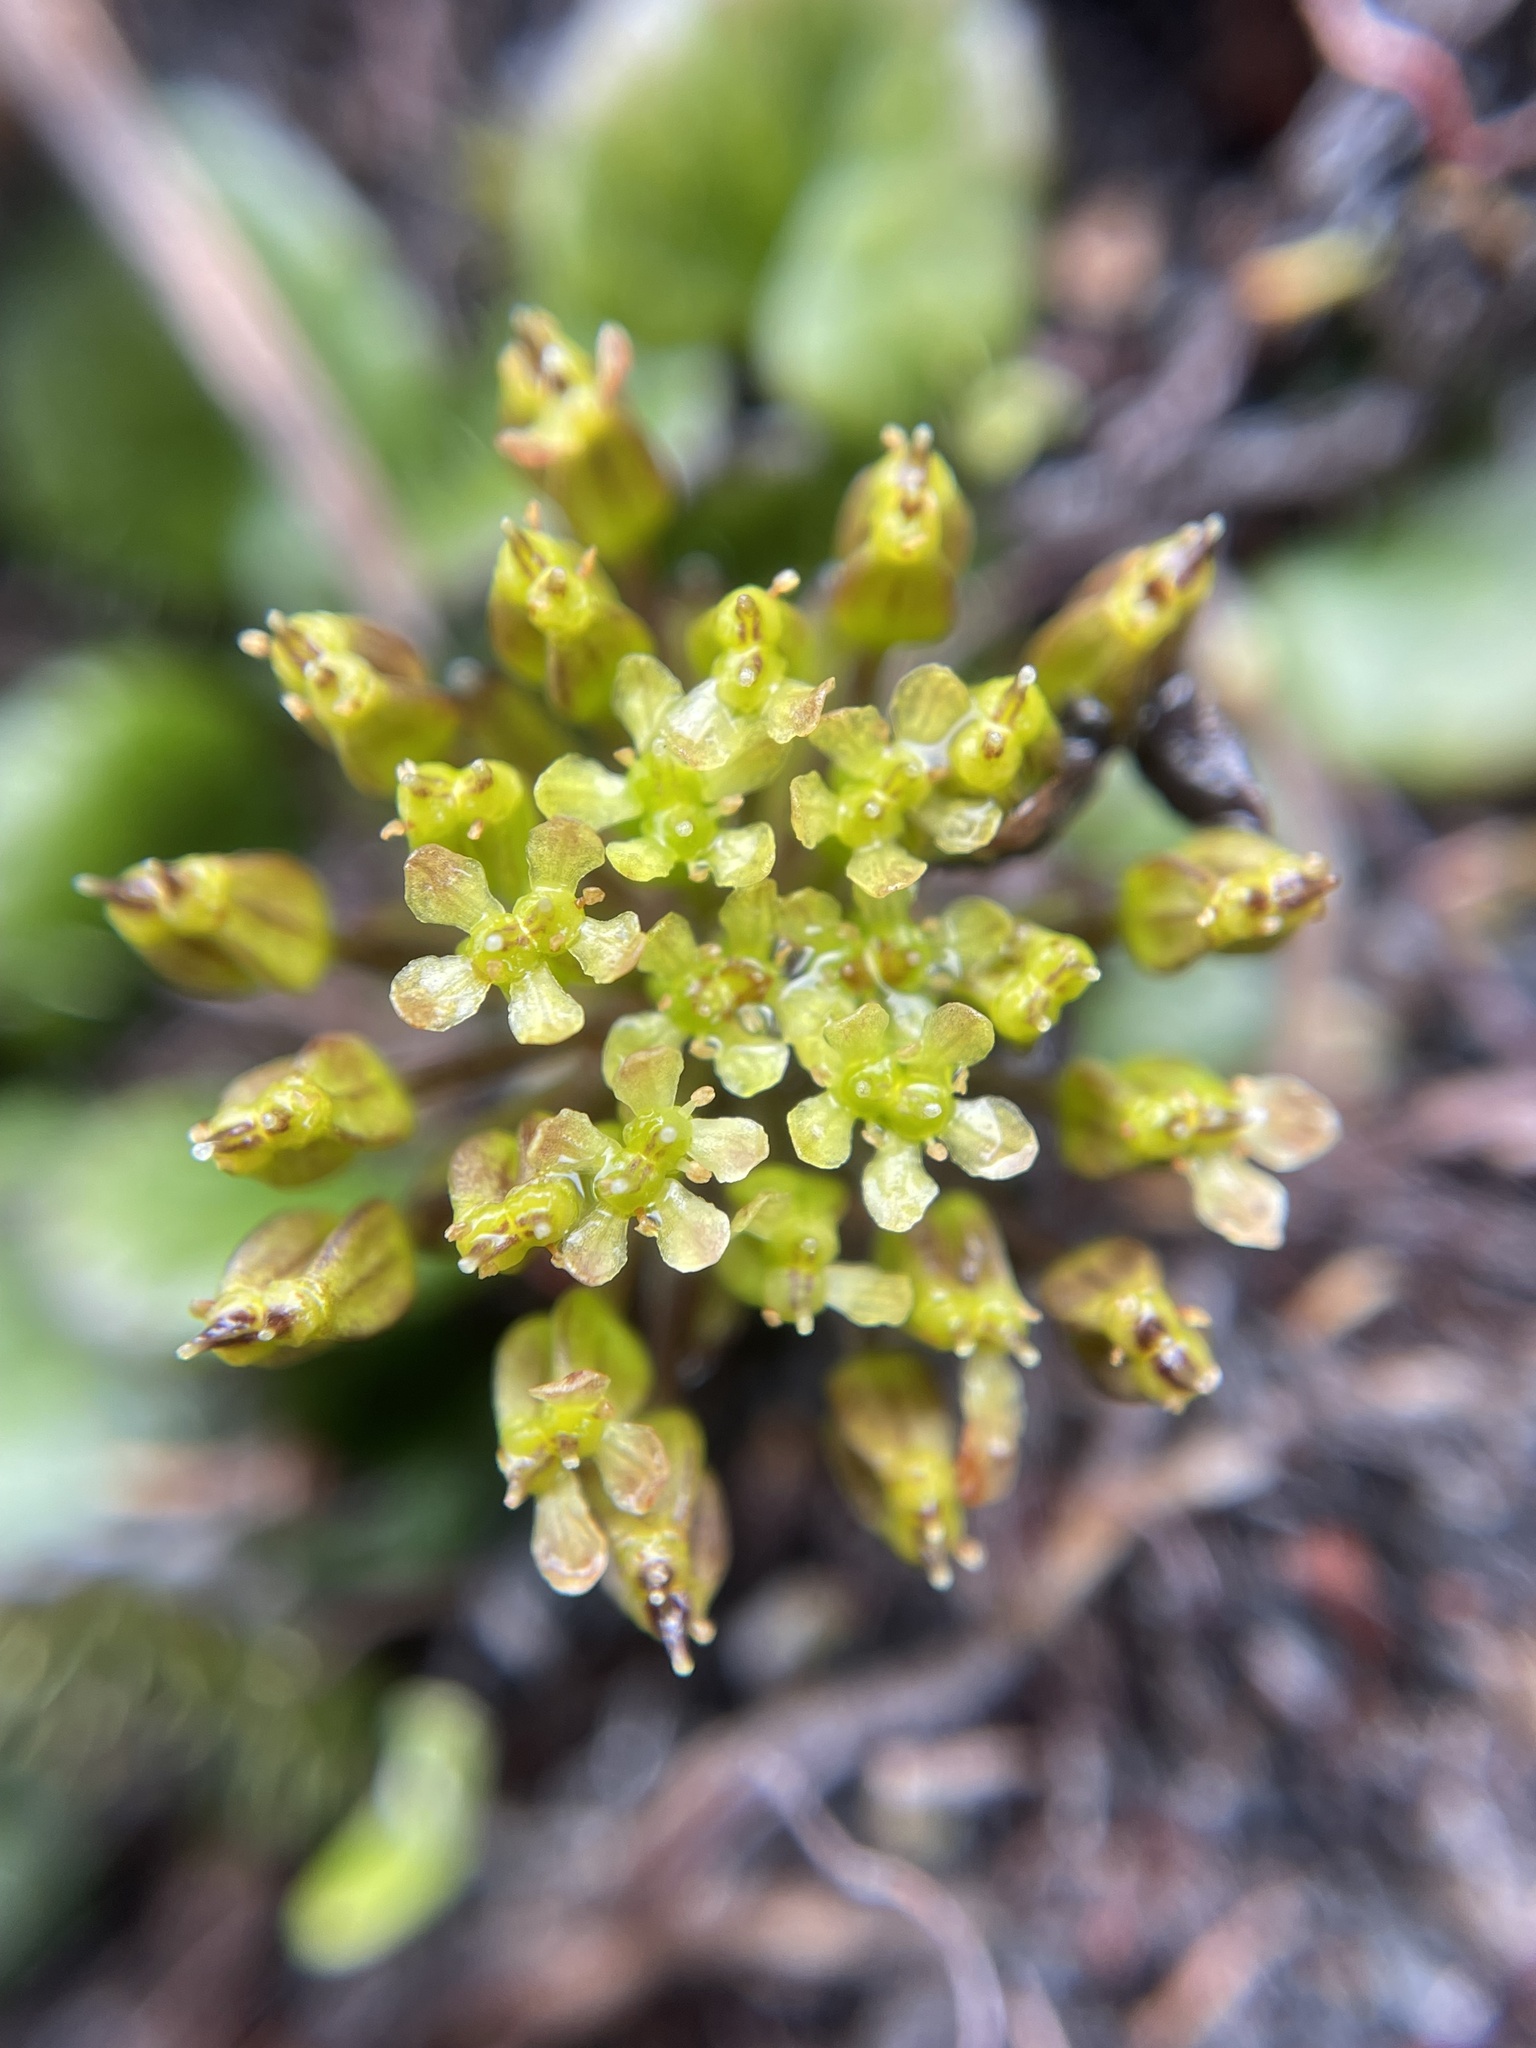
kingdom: Plantae
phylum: Tracheophyta
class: Magnoliopsida
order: Apiales
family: Apiaceae
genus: Diplaspis
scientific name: Diplaspis cordifolia
